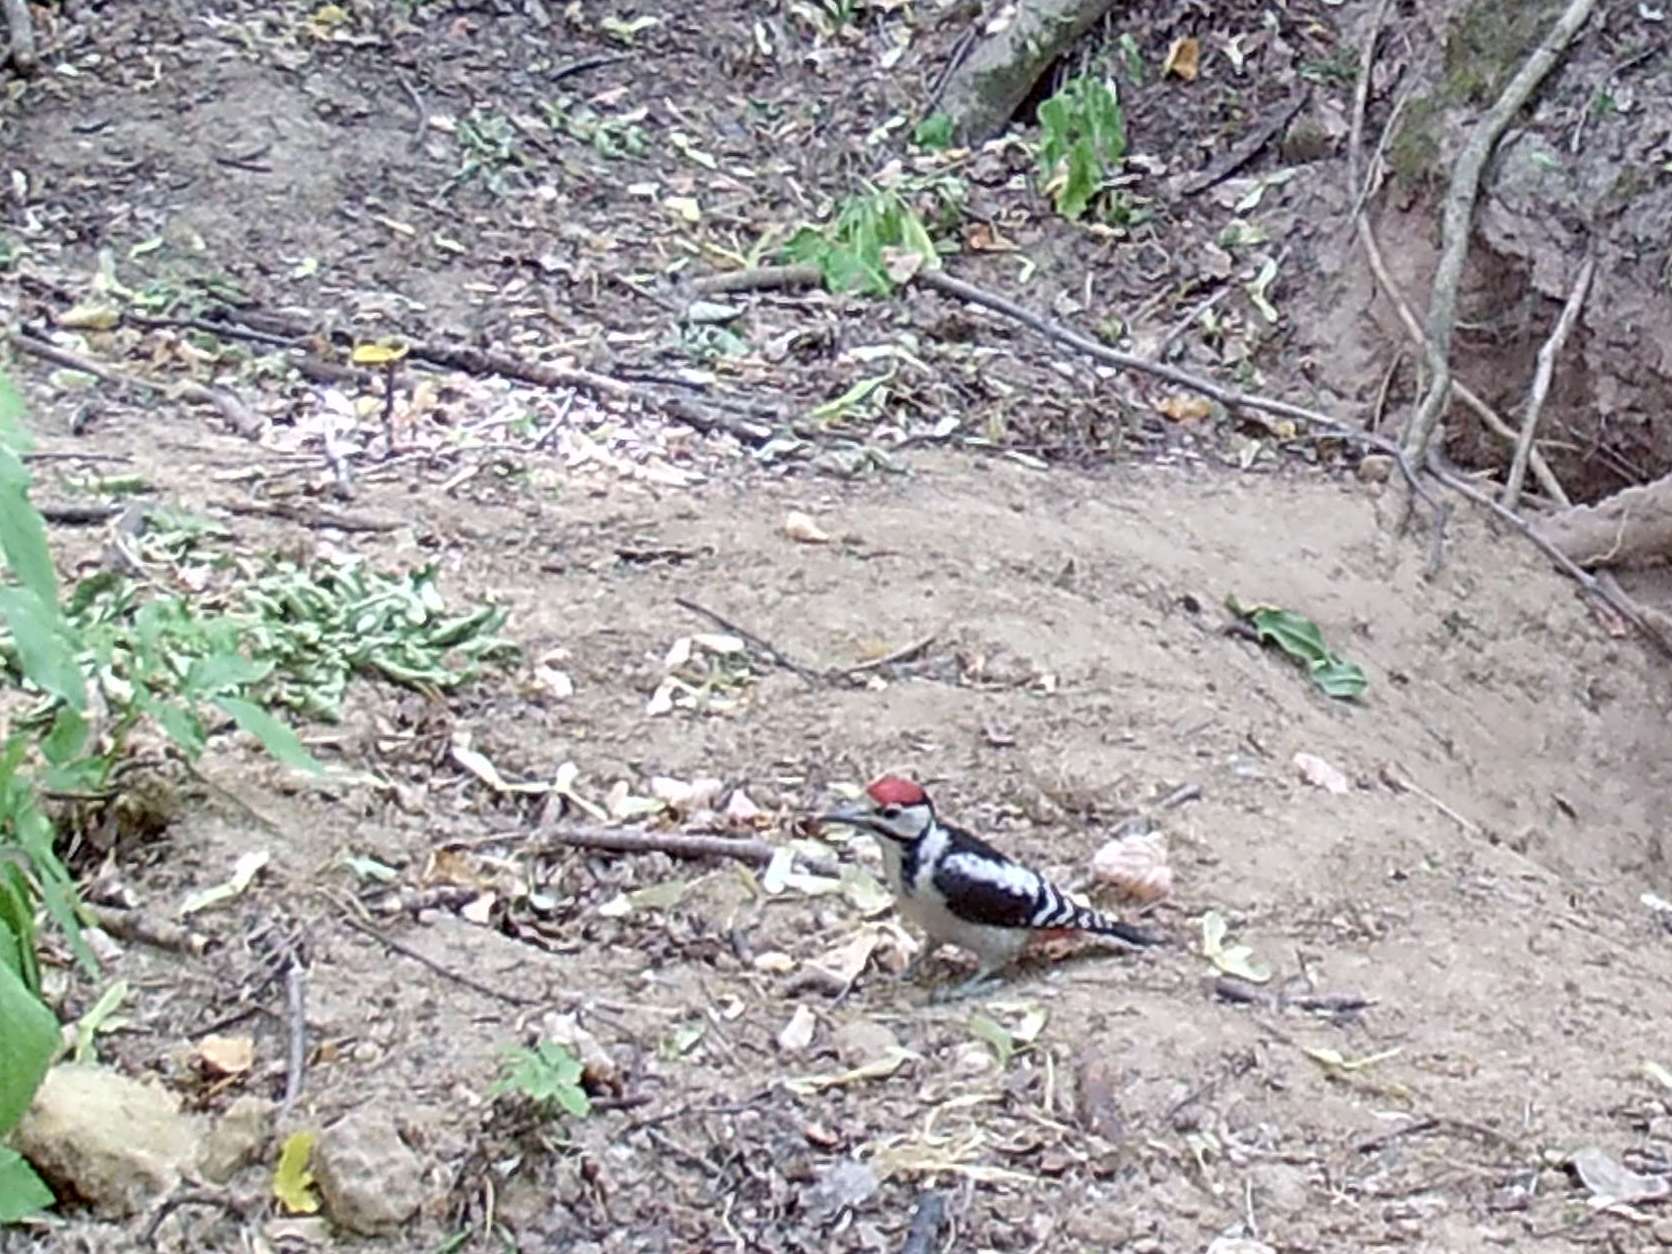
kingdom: Animalia
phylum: Chordata
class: Aves
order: Piciformes
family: Picidae
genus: Dendrocopos
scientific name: Dendrocopos major
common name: Great spotted woodpecker
